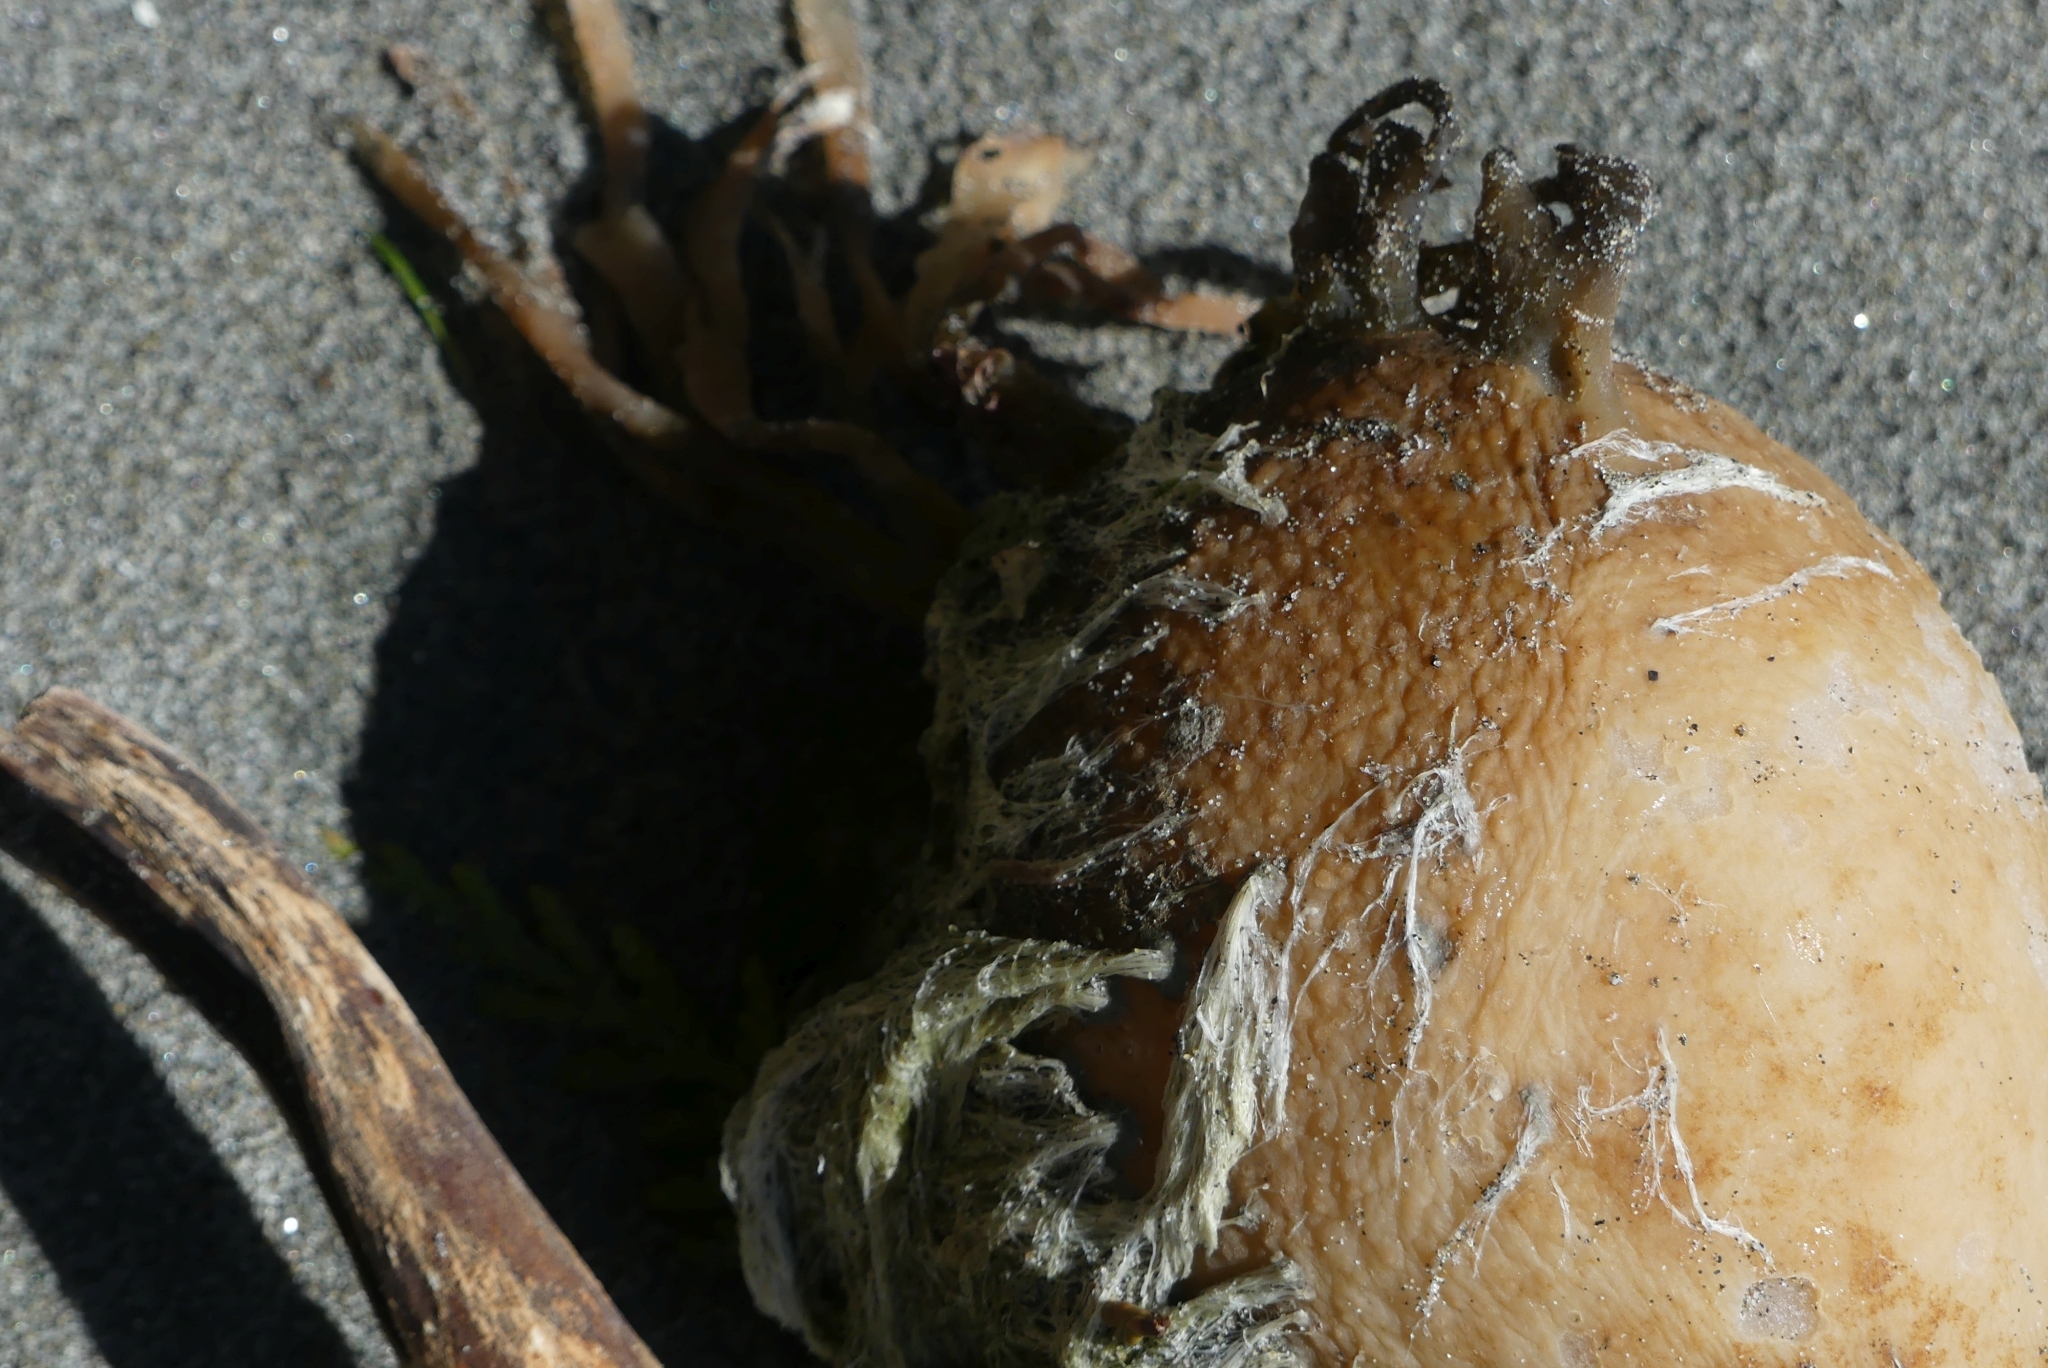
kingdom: Chromista
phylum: Ochrophyta
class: Phaeophyceae
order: Laminariales
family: Laminariaceae
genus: Nereocystis
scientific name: Nereocystis luetkeana
